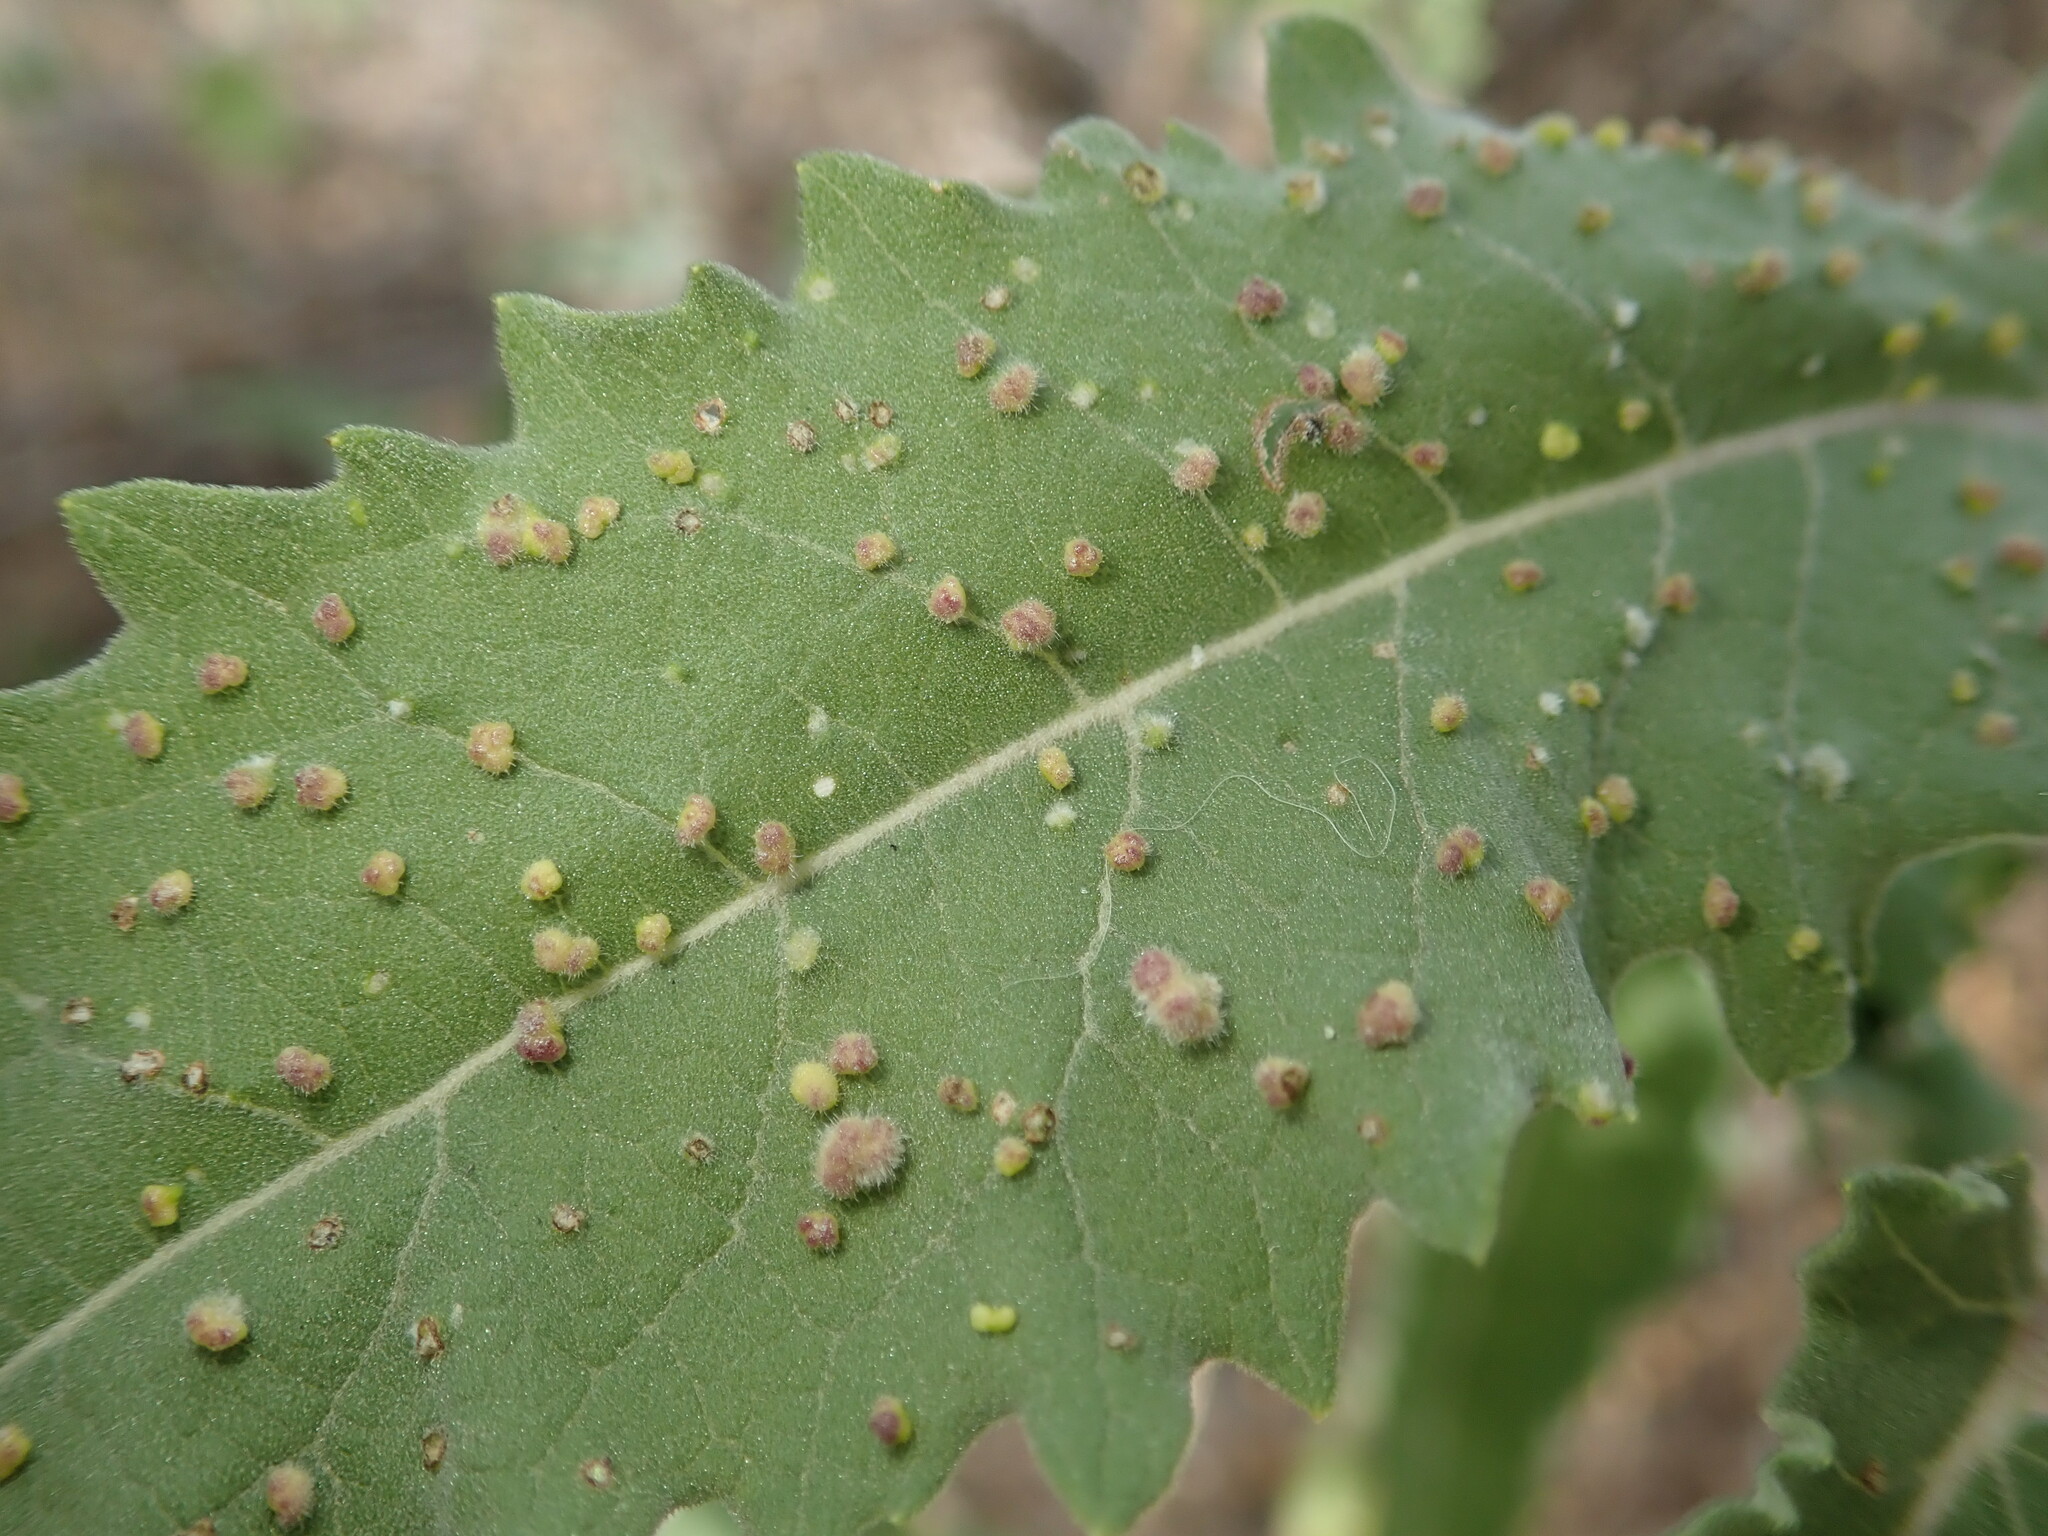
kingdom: Animalia
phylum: Arthropoda
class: Arachnida
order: Trombidiformes
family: Eriophyidae
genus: Aceria
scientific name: Aceria
